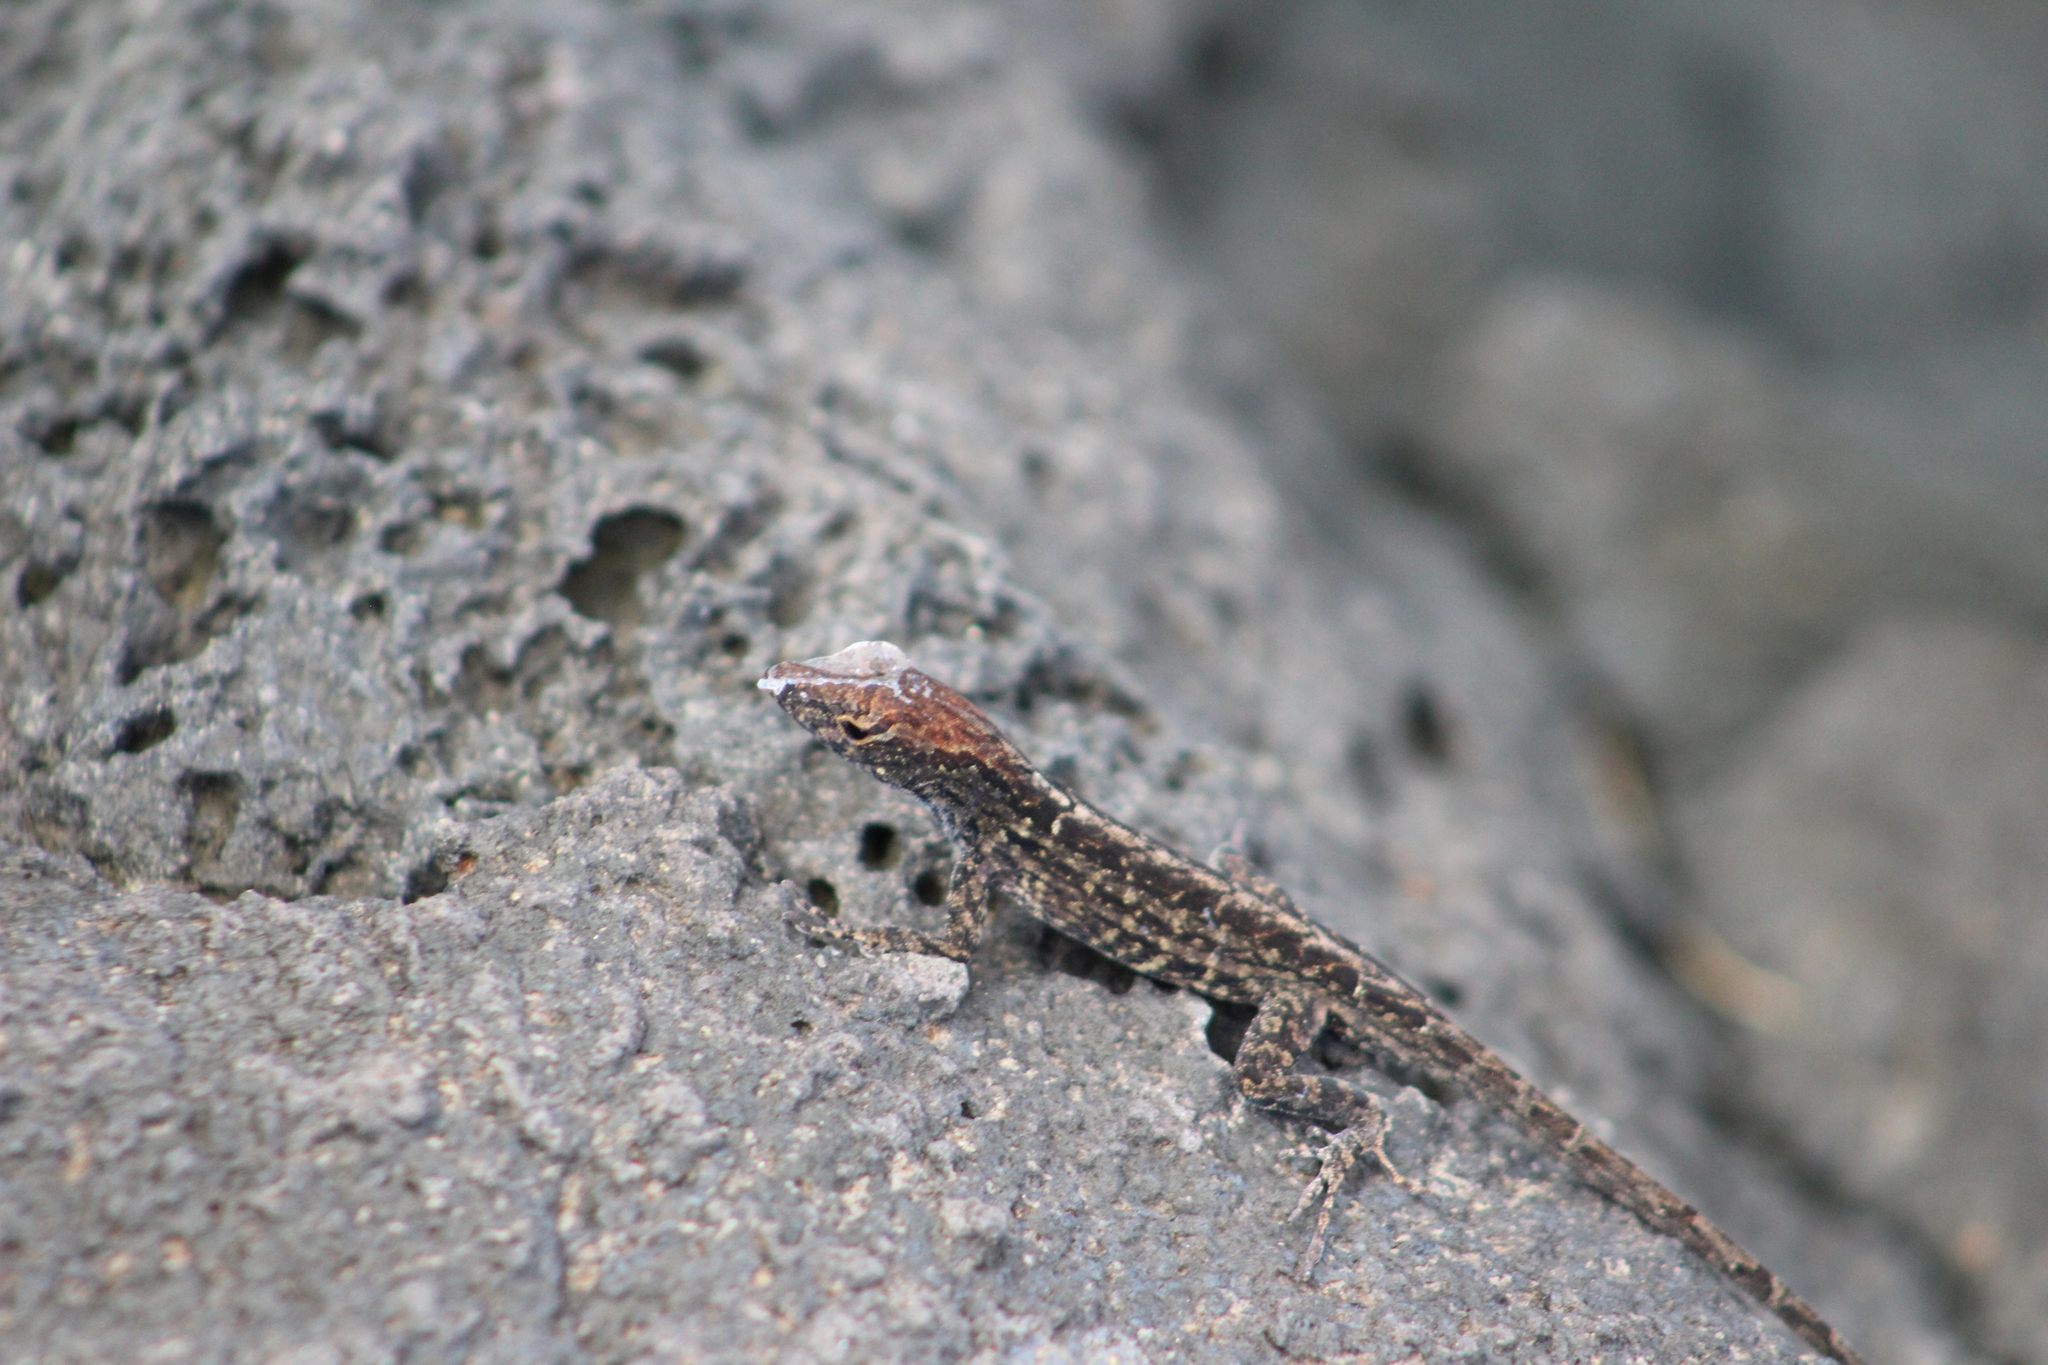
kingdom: Animalia
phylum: Chordata
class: Squamata
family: Dactyloidae
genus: Anolis
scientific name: Anolis sagrei
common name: Brown anole
